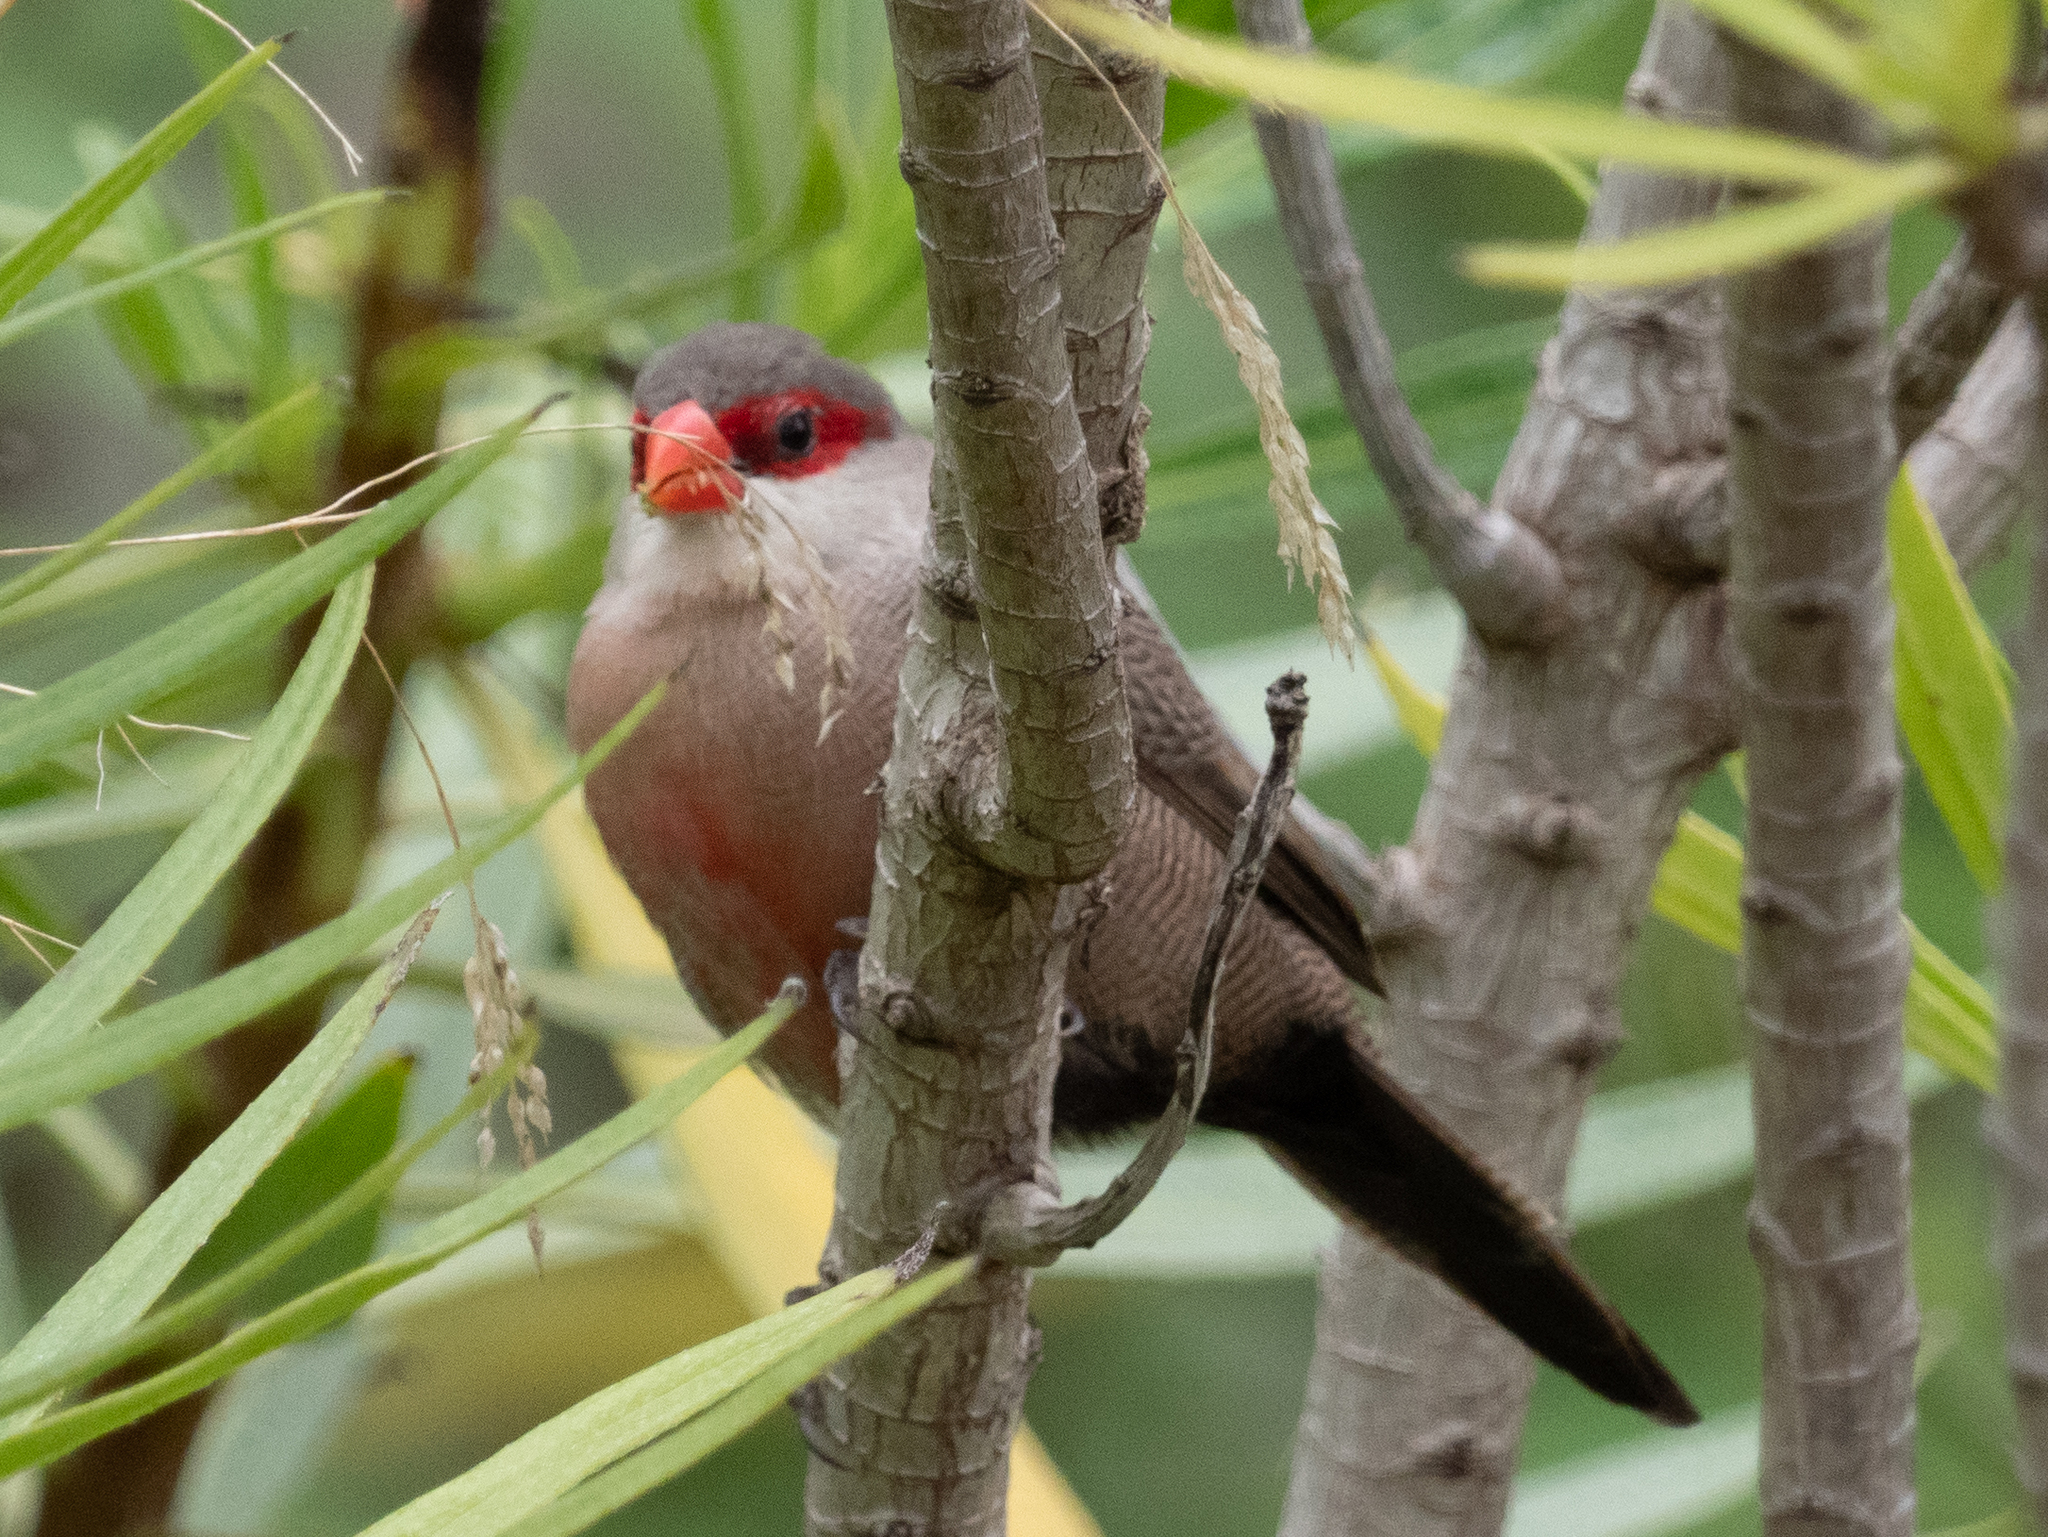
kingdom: Animalia
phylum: Chordata
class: Aves
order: Passeriformes
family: Estrildidae
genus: Estrilda
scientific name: Estrilda astrild
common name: Common waxbill
